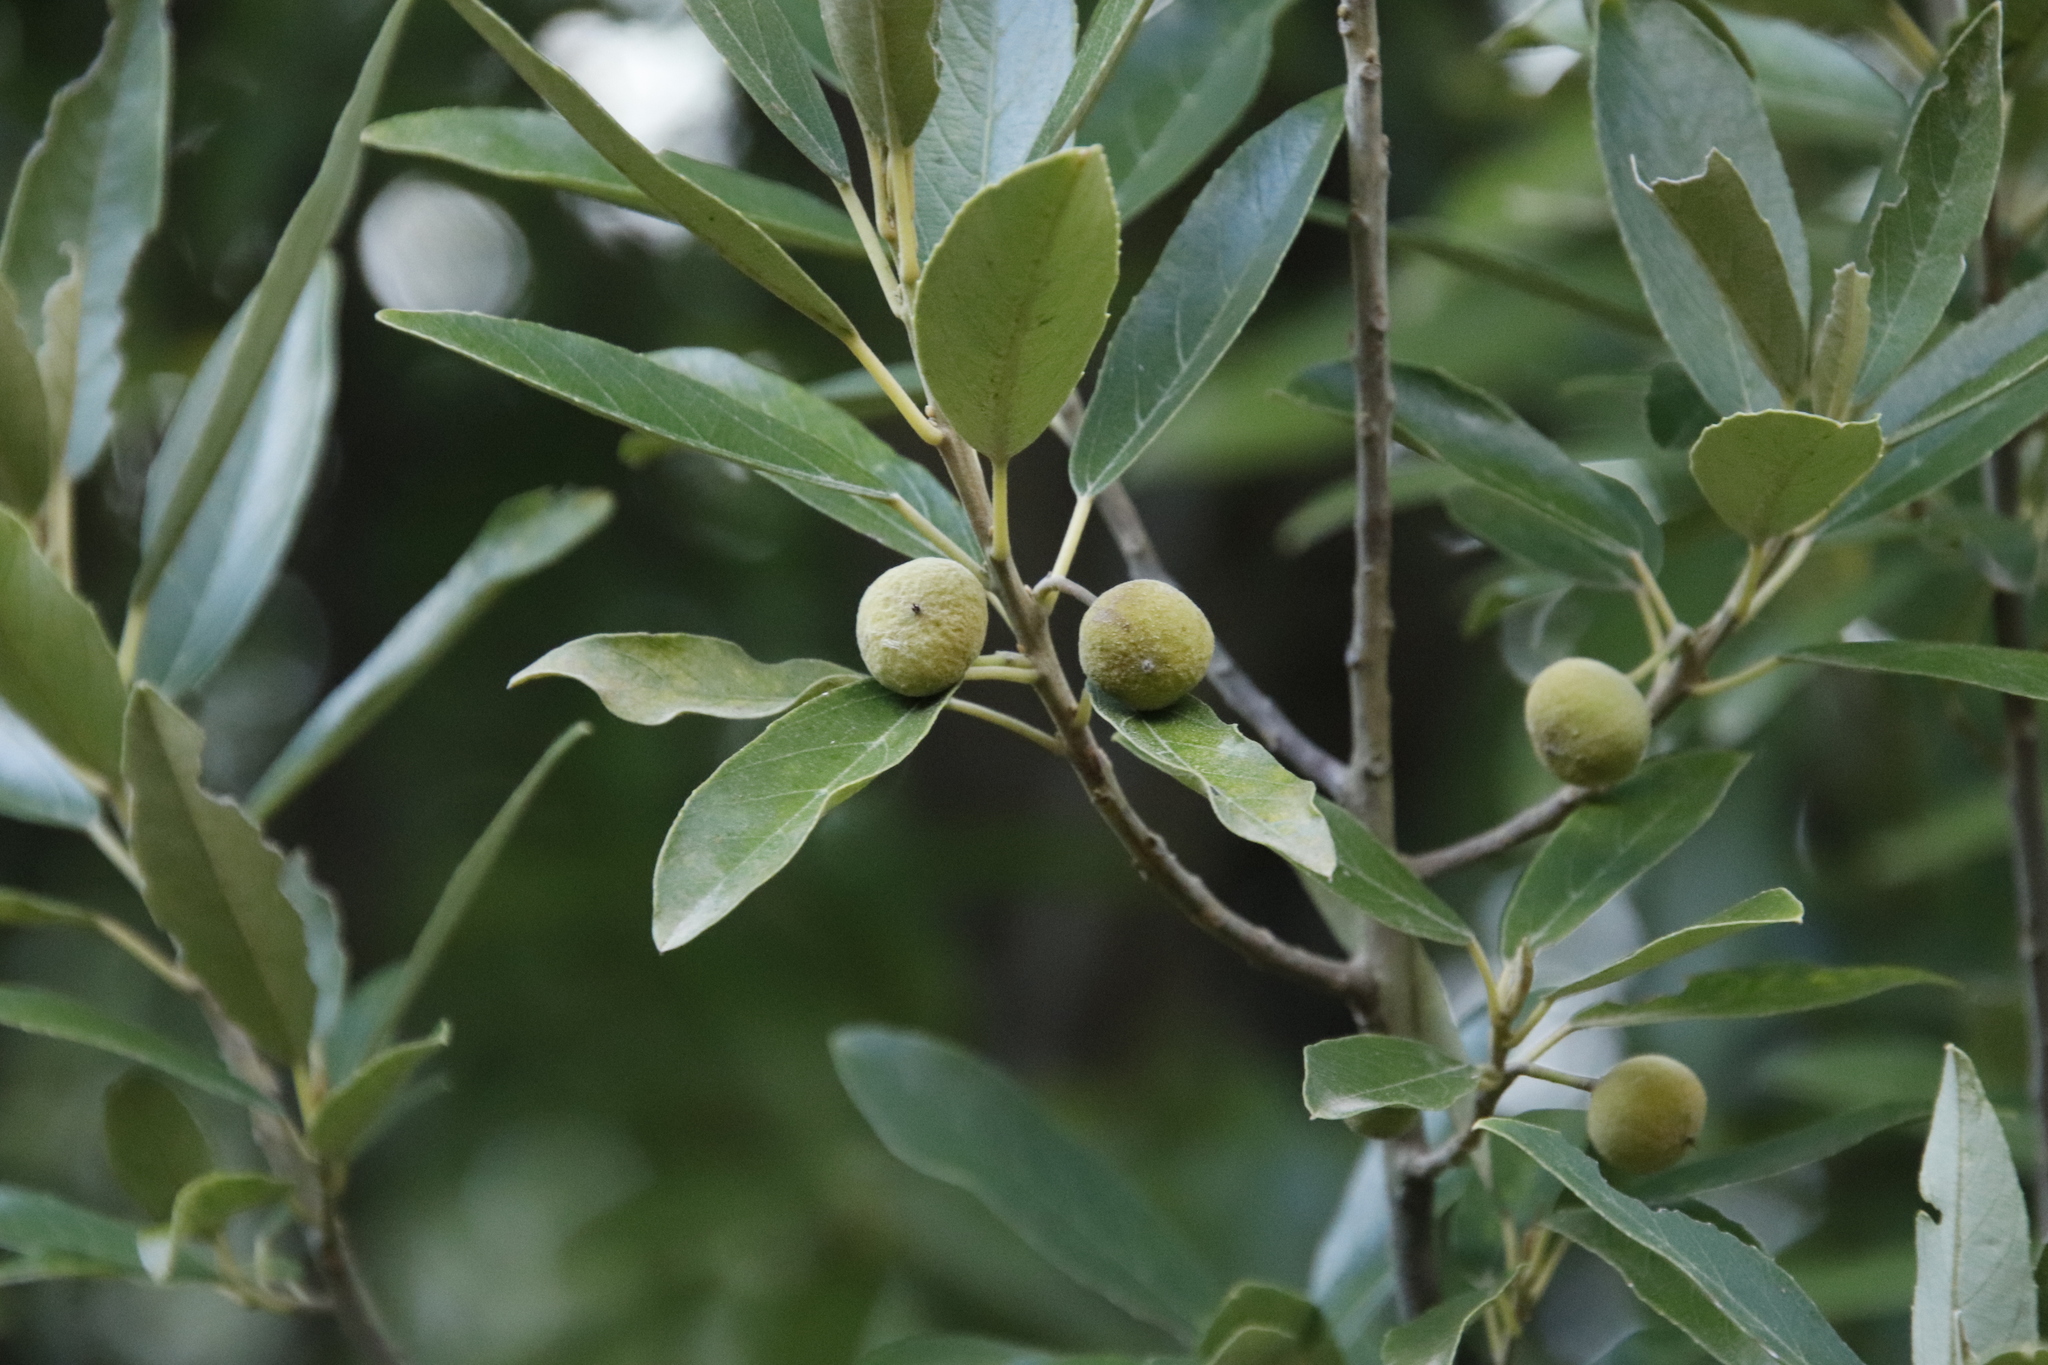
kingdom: Plantae
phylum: Tracheophyta
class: Magnoliopsida
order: Malpighiales
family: Achariaceae
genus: Kiggelaria
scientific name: Kiggelaria africana
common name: Wild peach
